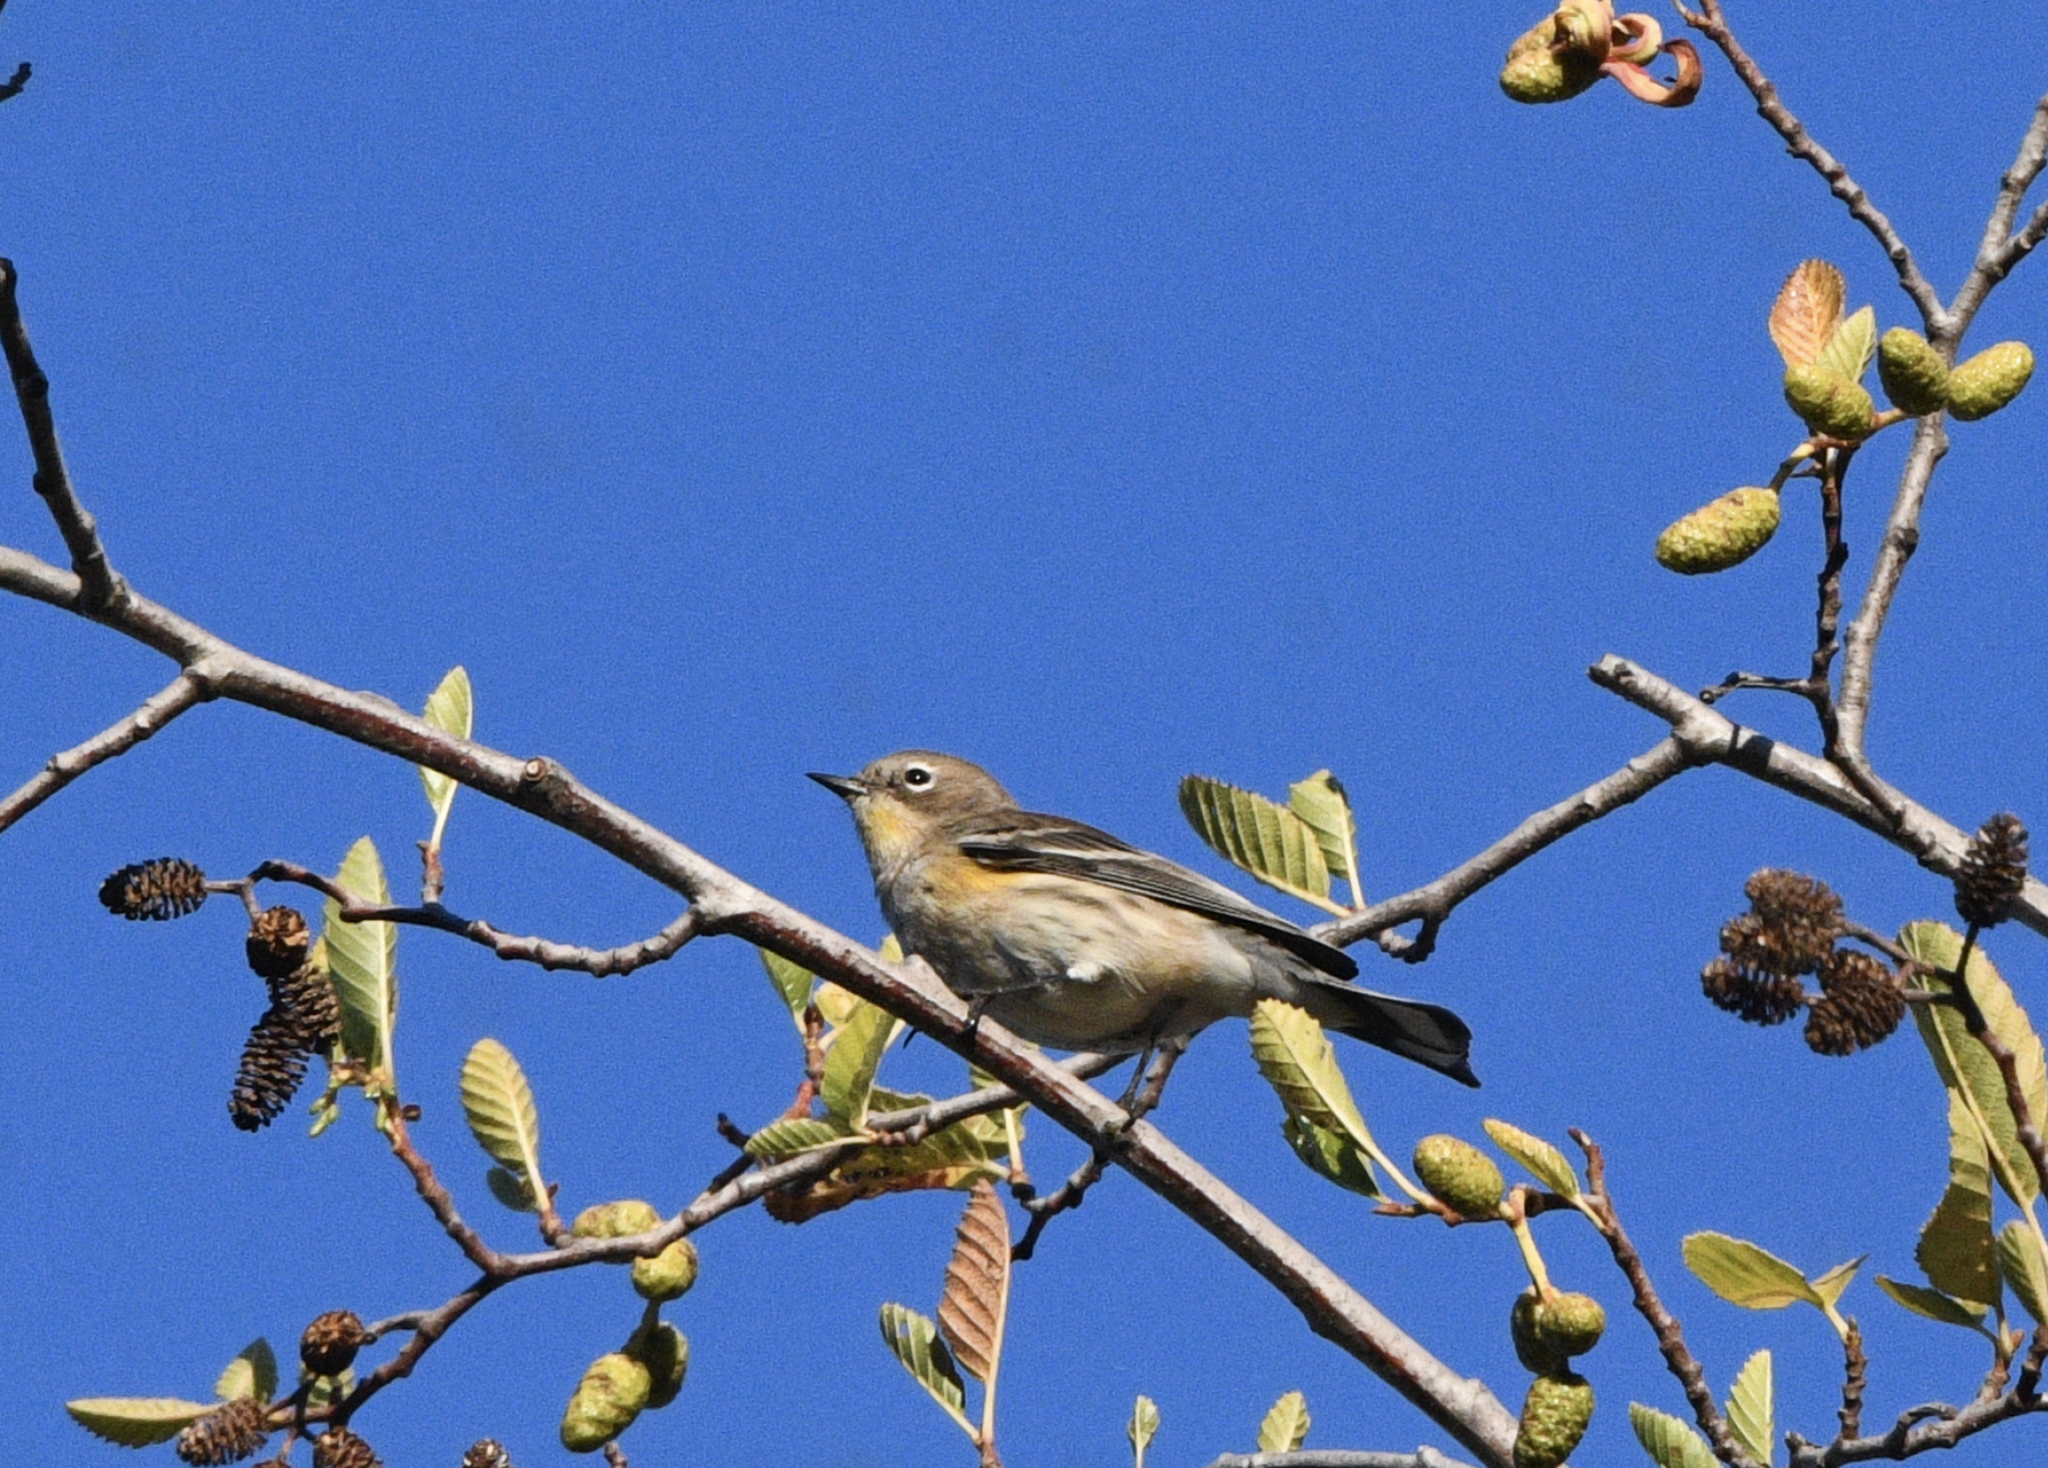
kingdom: Animalia
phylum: Chordata
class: Aves
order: Passeriformes
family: Parulidae
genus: Setophaga
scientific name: Setophaga coronata
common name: Myrtle warbler
